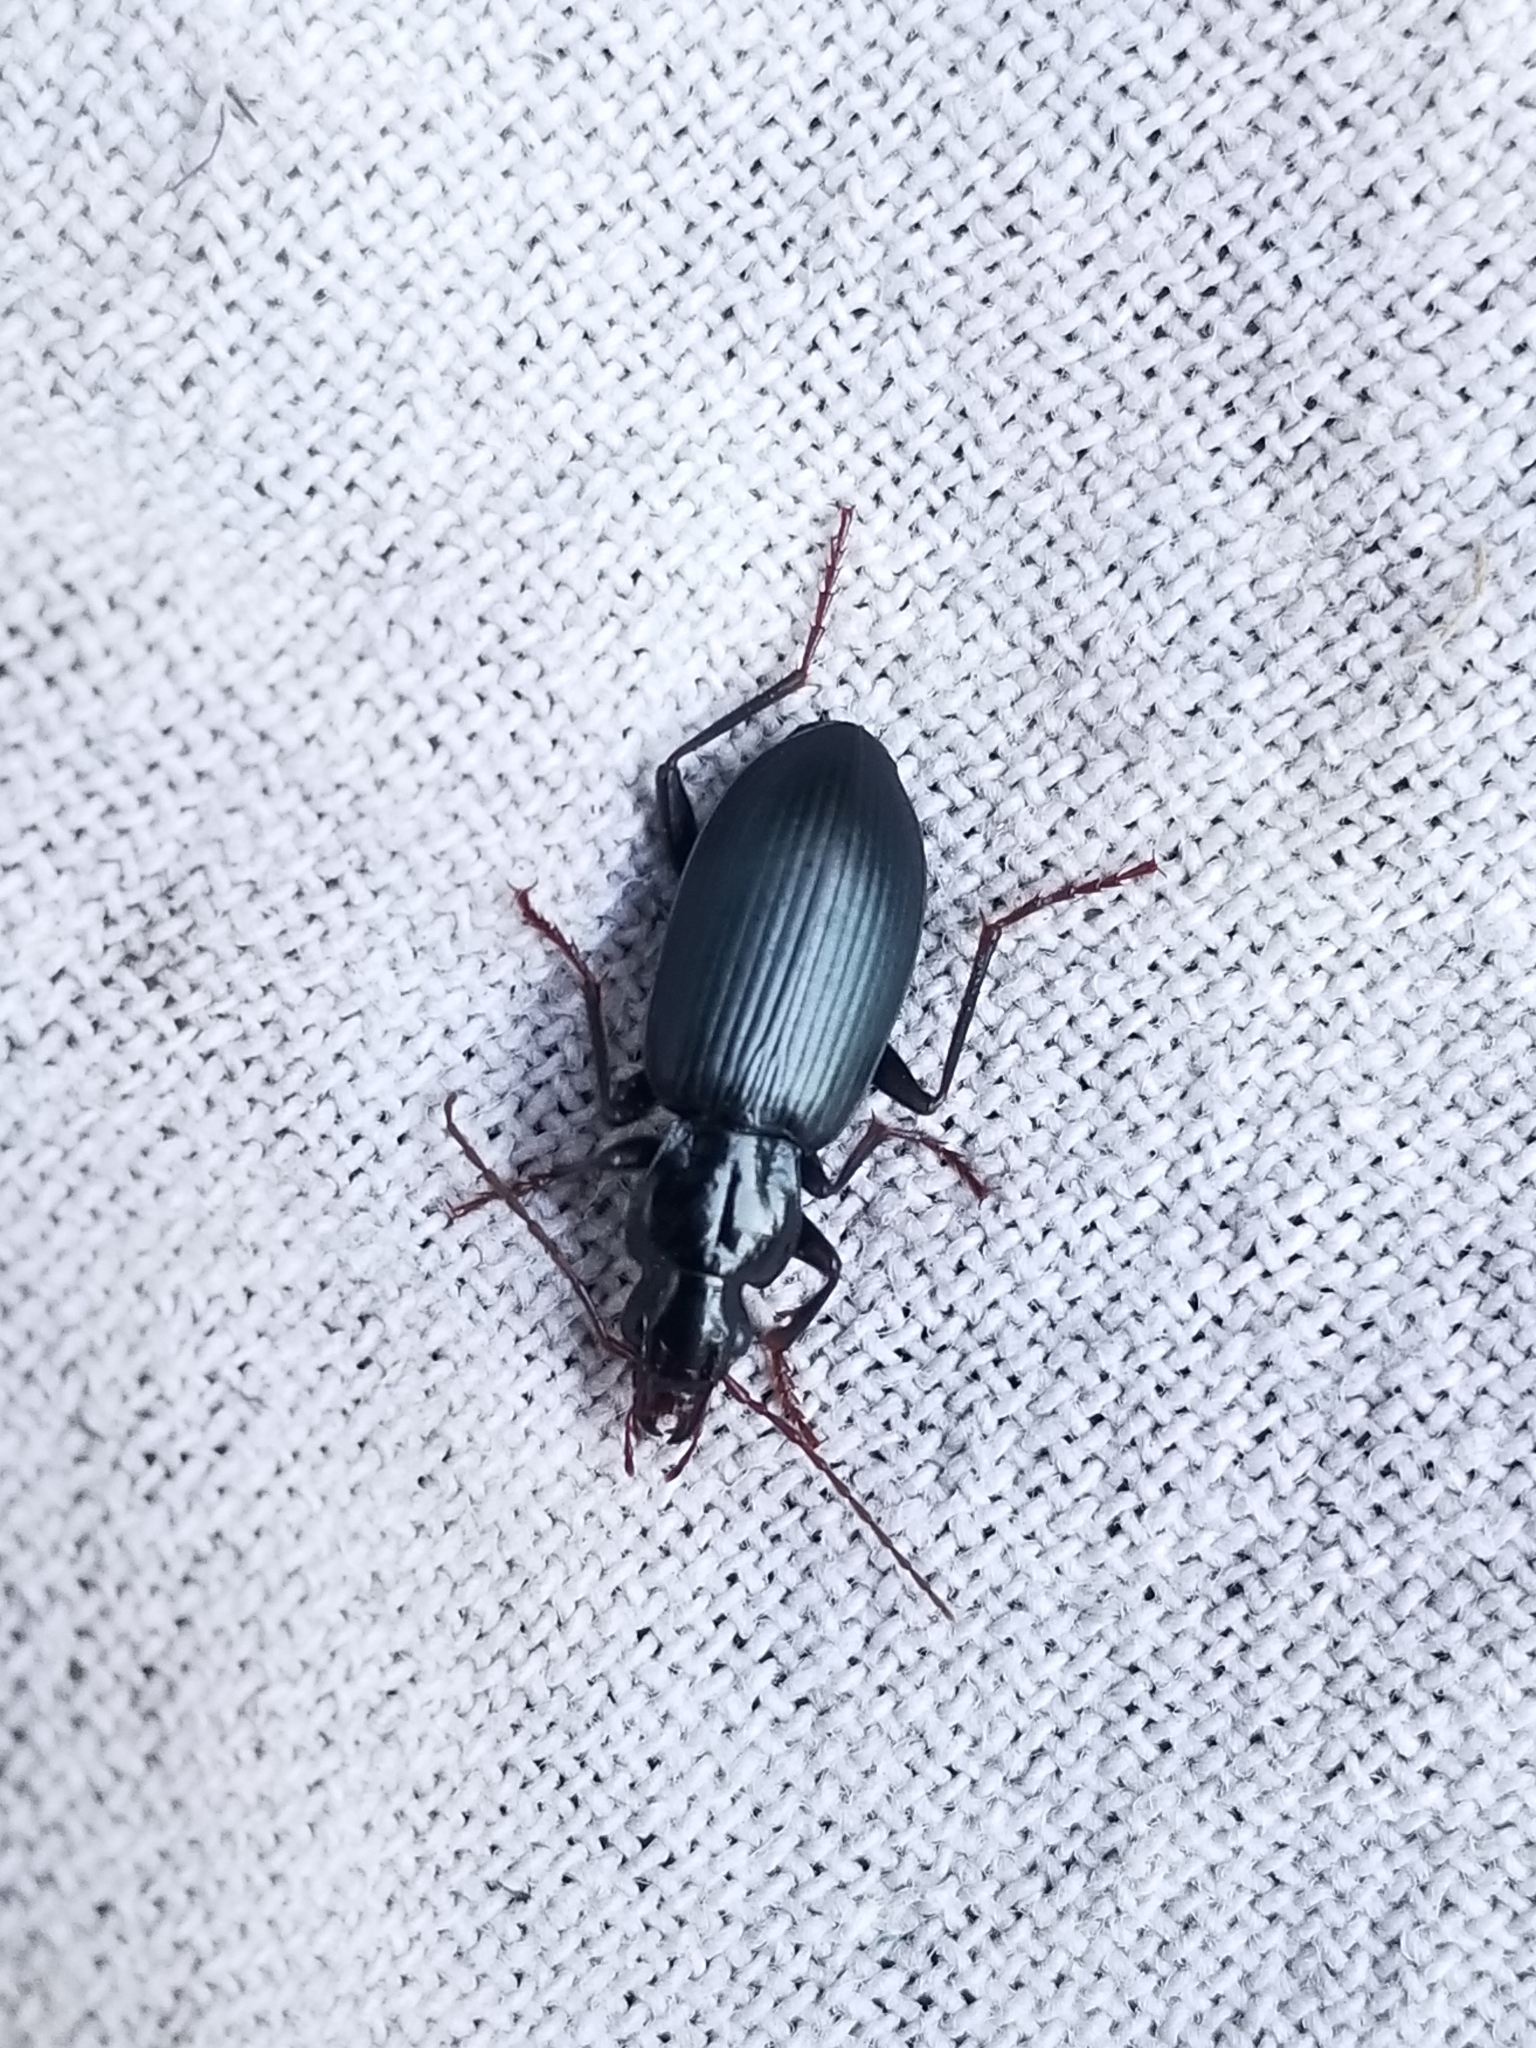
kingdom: Animalia
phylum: Arthropoda
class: Insecta
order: Coleoptera
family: Carabidae
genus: Laemostenus
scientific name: Laemostenus complanatus
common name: Cosmopolitan ground beetle
